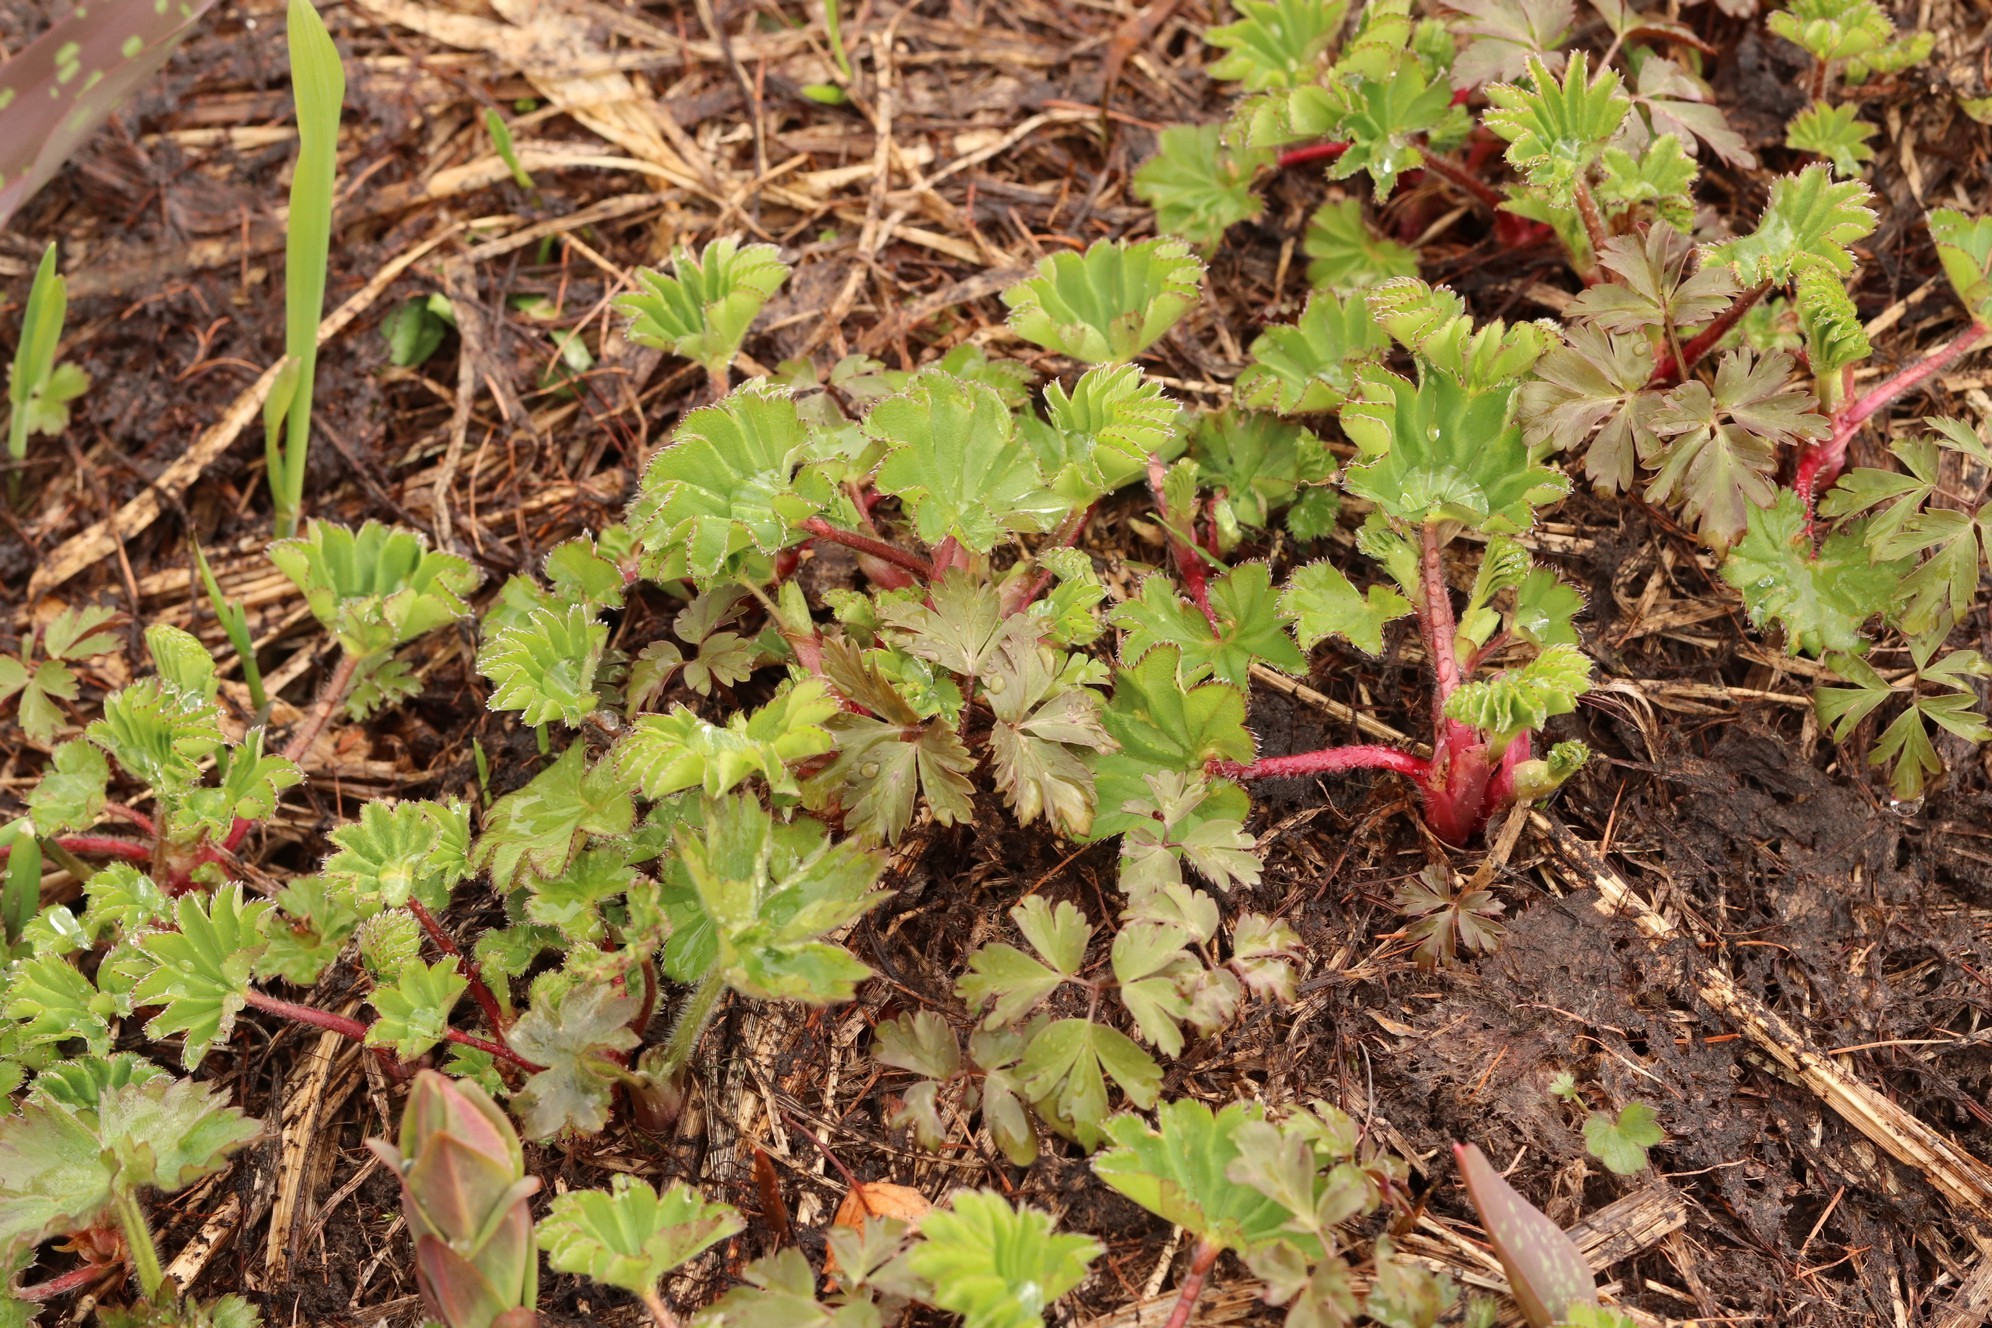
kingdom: Plantae
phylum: Tracheophyta
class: Magnoliopsida
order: Rosales
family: Rosaceae
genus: Alchemilla
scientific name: Alchemilla
